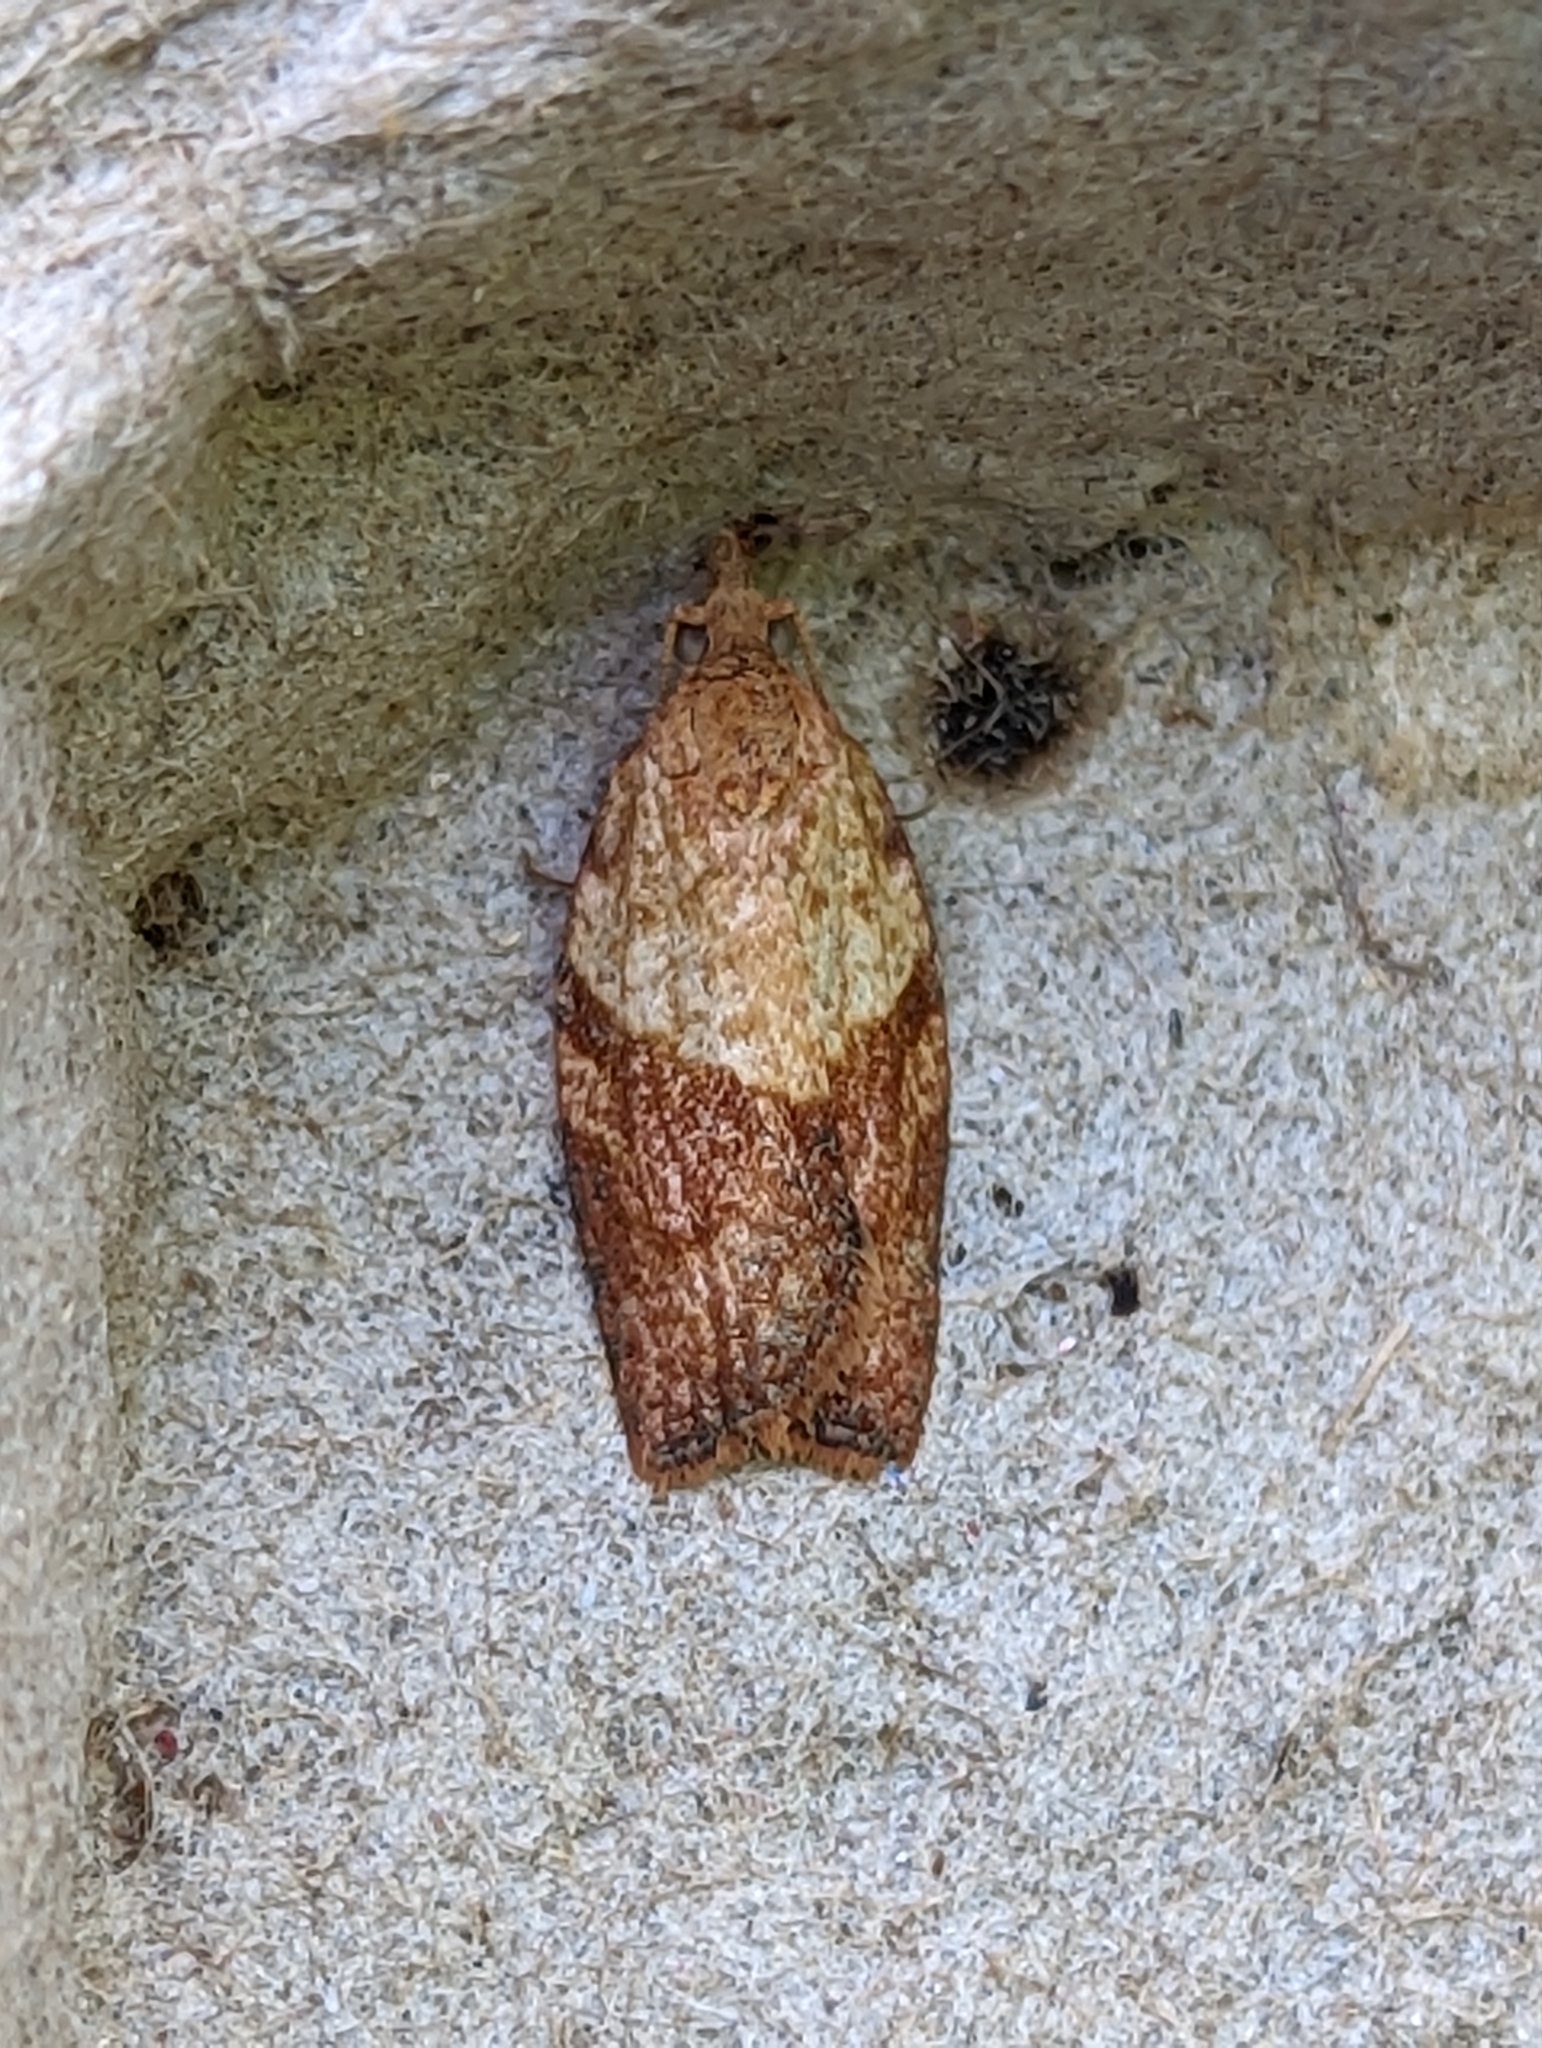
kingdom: Animalia
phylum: Arthropoda
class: Insecta
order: Lepidoptera
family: Tortricidae
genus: Epiphyas
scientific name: Epiphyas postvittana
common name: Light brown apple moth
